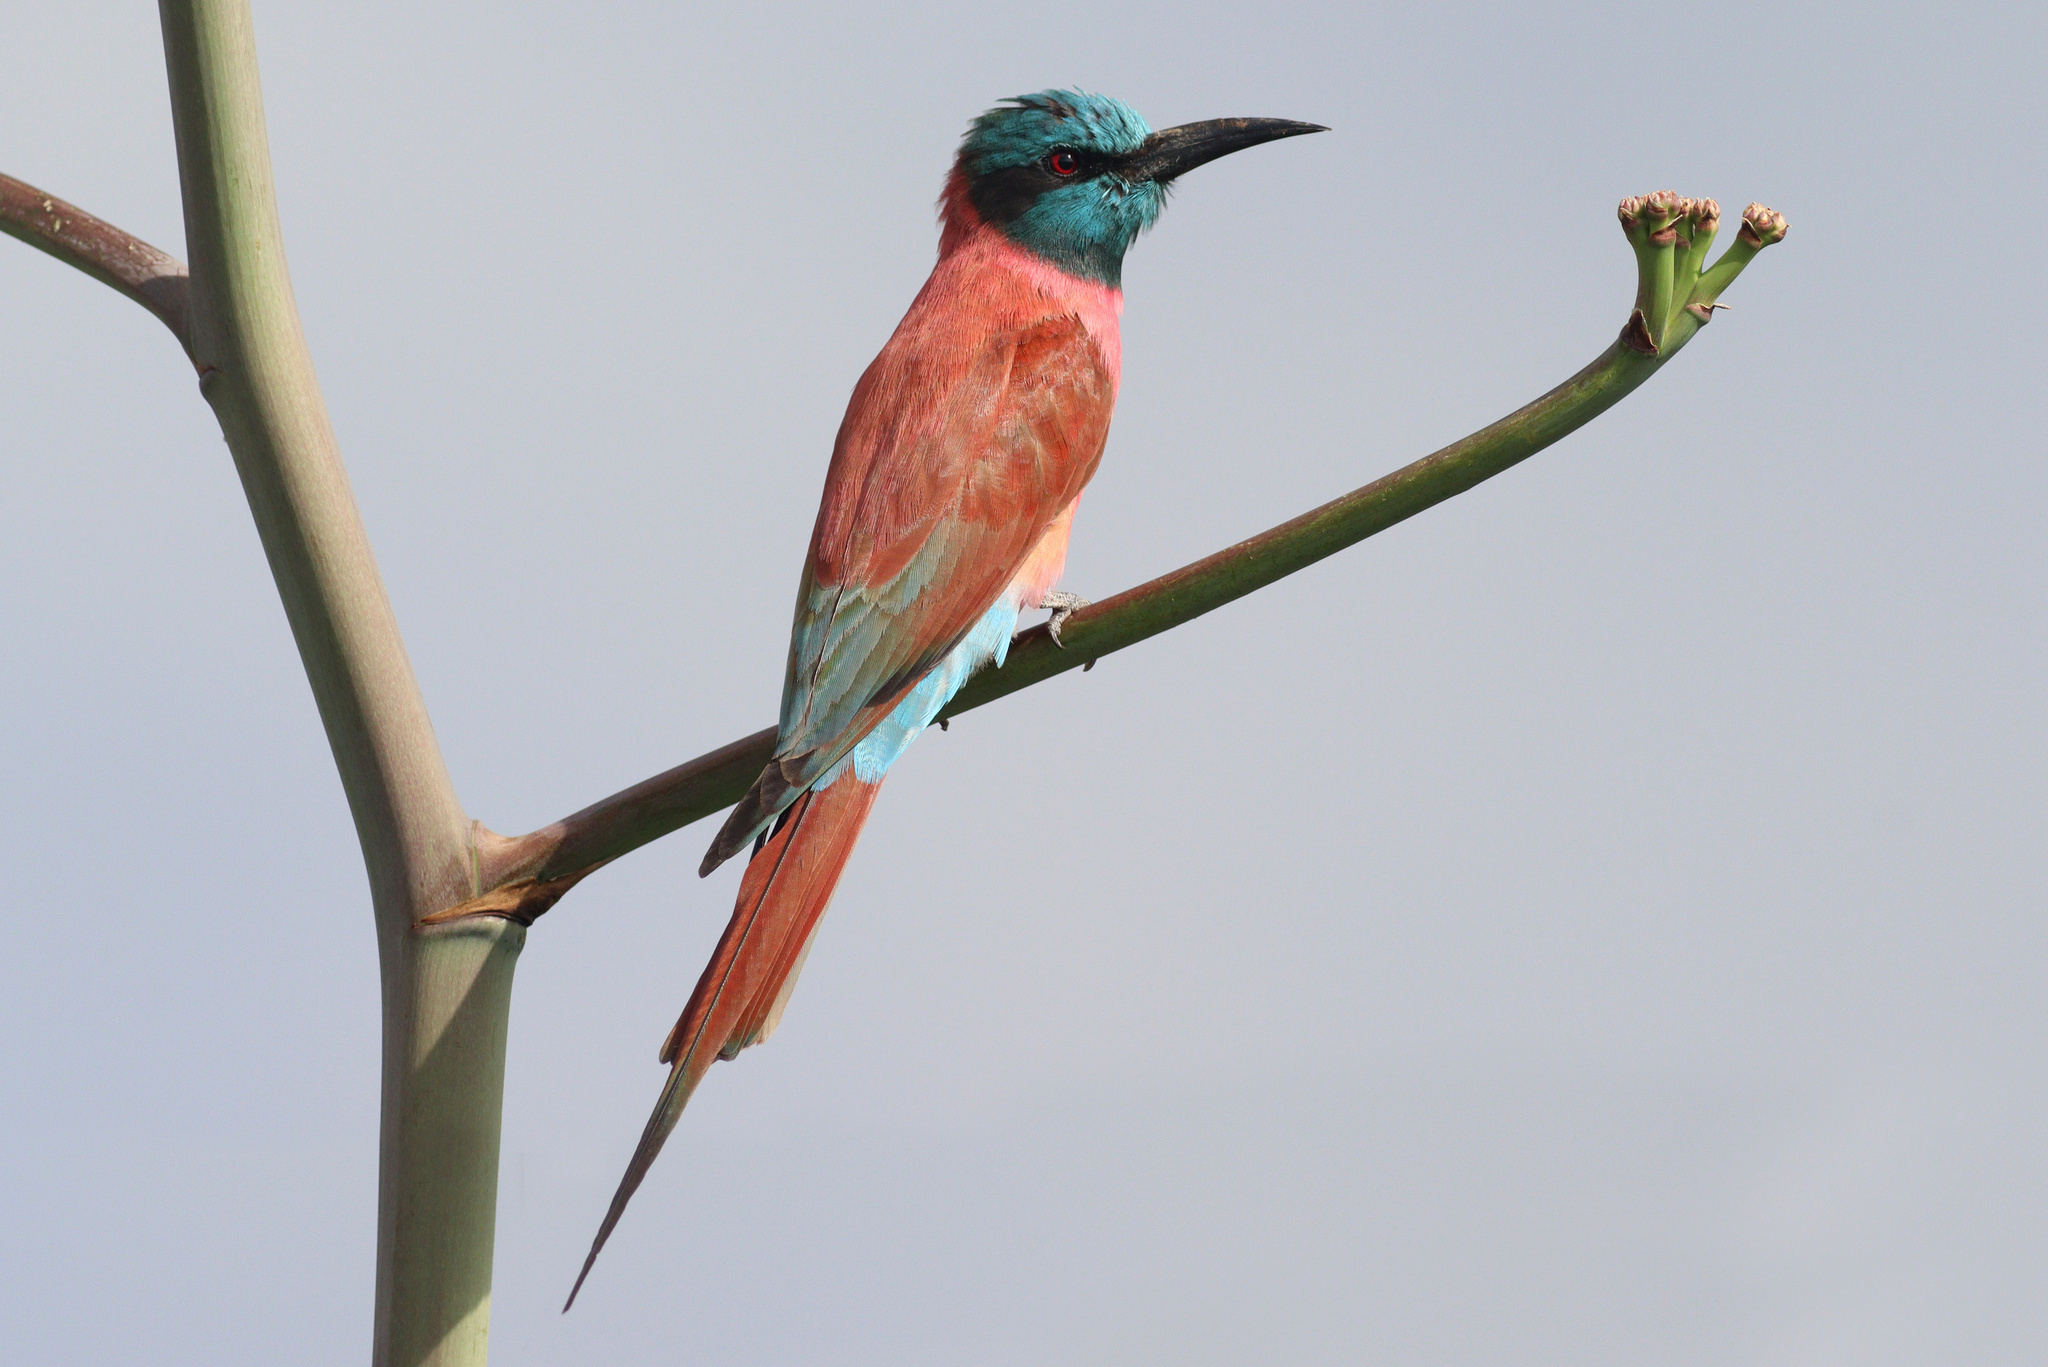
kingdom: Animalia
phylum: Chordata
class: Aves
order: Coraciiformes
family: Meropidae
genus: Merops
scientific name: Merops nubicus
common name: Northern carmine bee-eater
